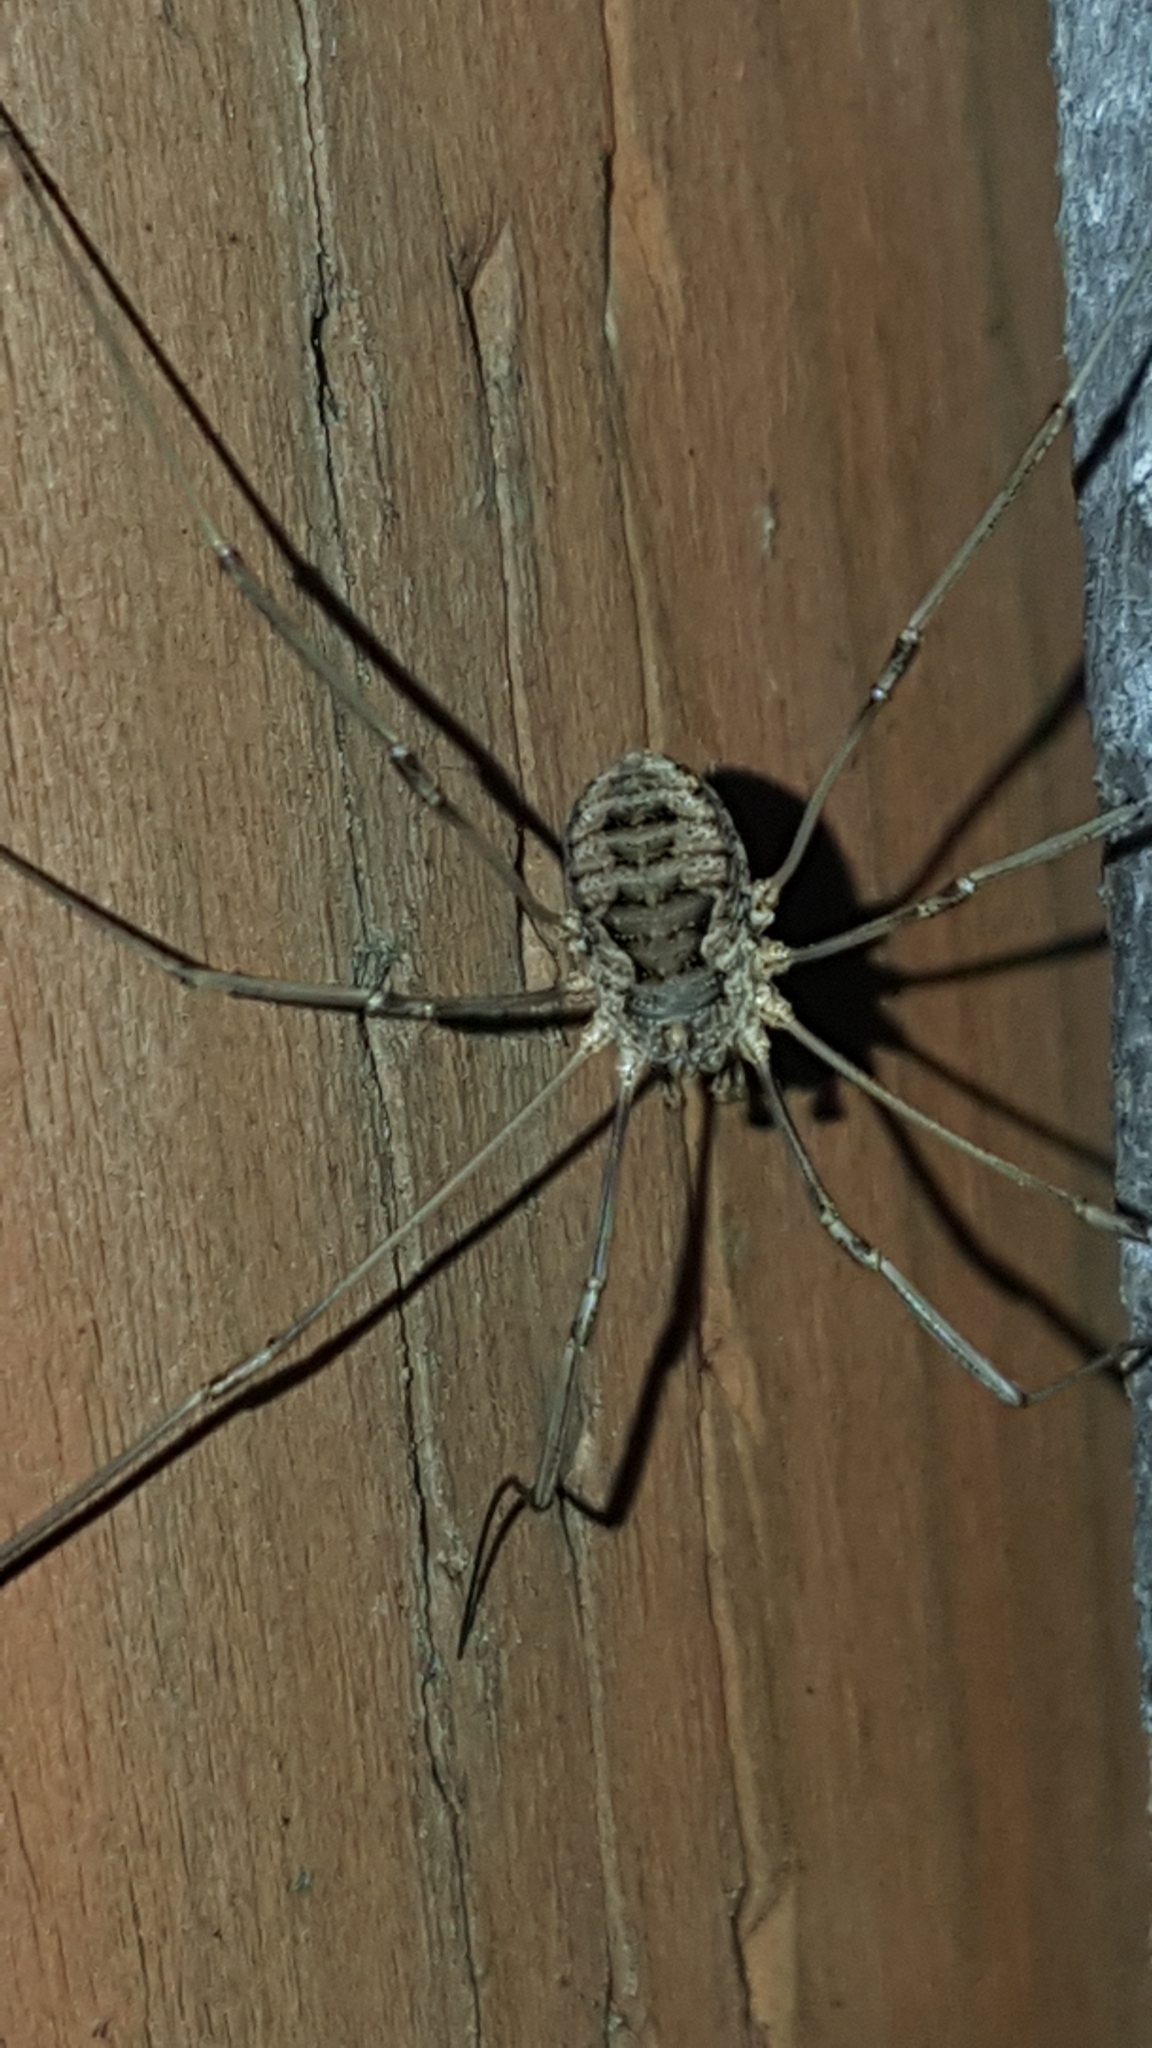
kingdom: Animalia
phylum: Arthropoda
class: Arachnida
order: Opiliones
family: Phalangiidae
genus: Phalangium
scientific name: Phalangium opilio
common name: Daddy longleg
